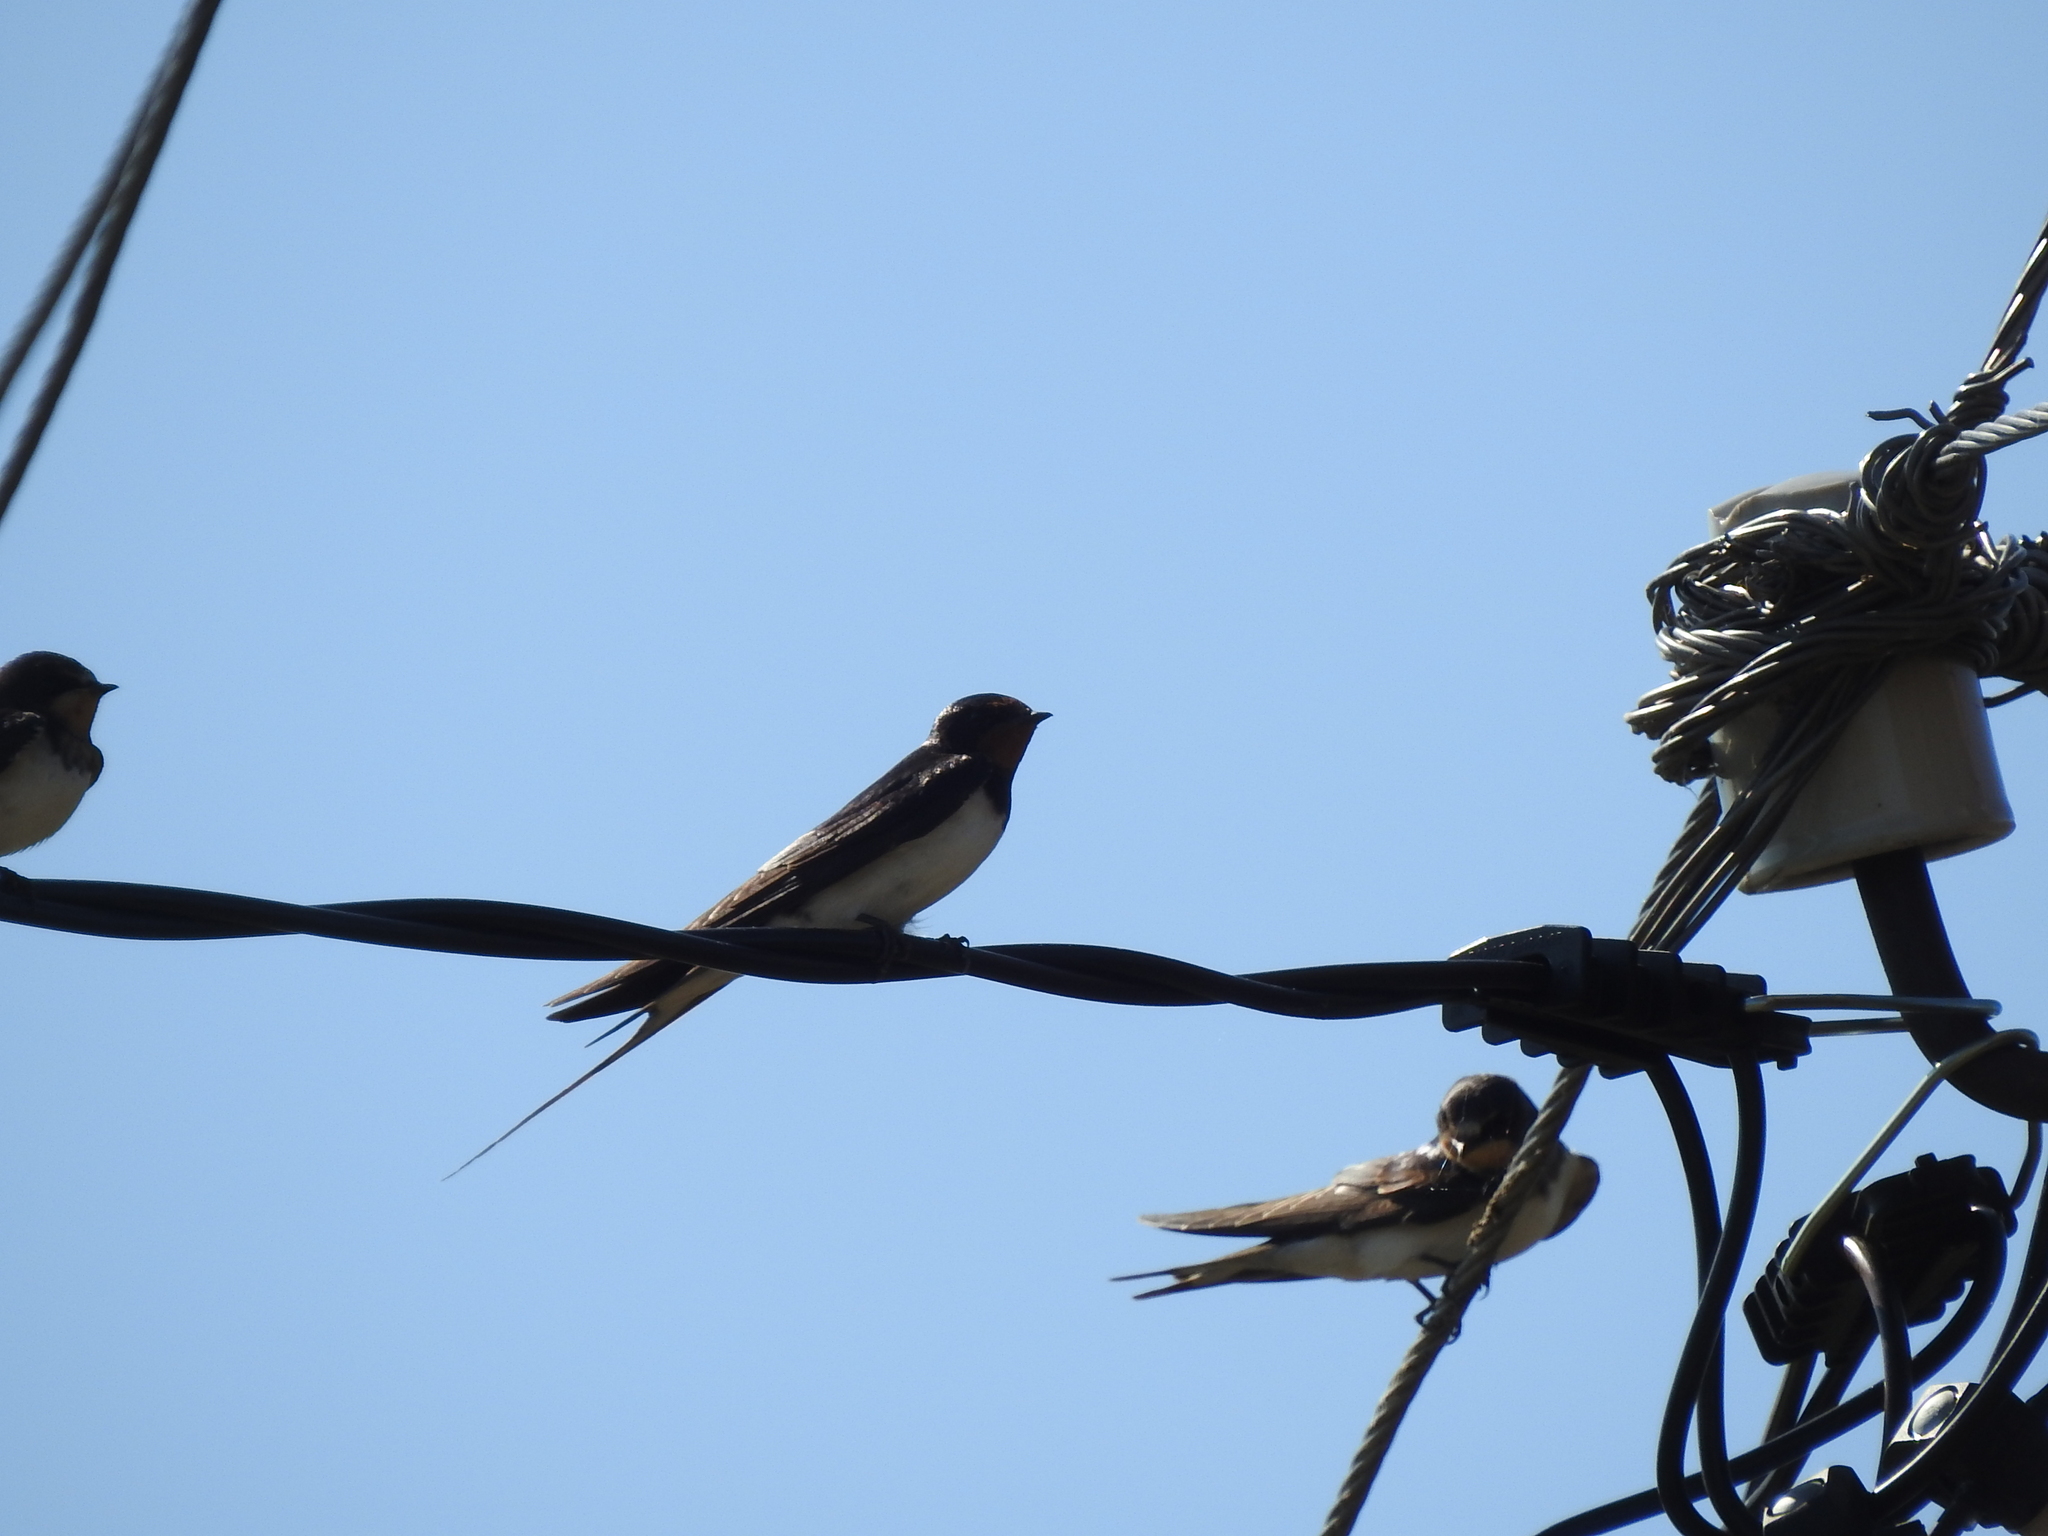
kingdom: Animalia
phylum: Chordata
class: Aves
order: Passeriformes
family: Hirundinidae
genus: Hirundo
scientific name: Hirundo rustica
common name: Barn swallow
